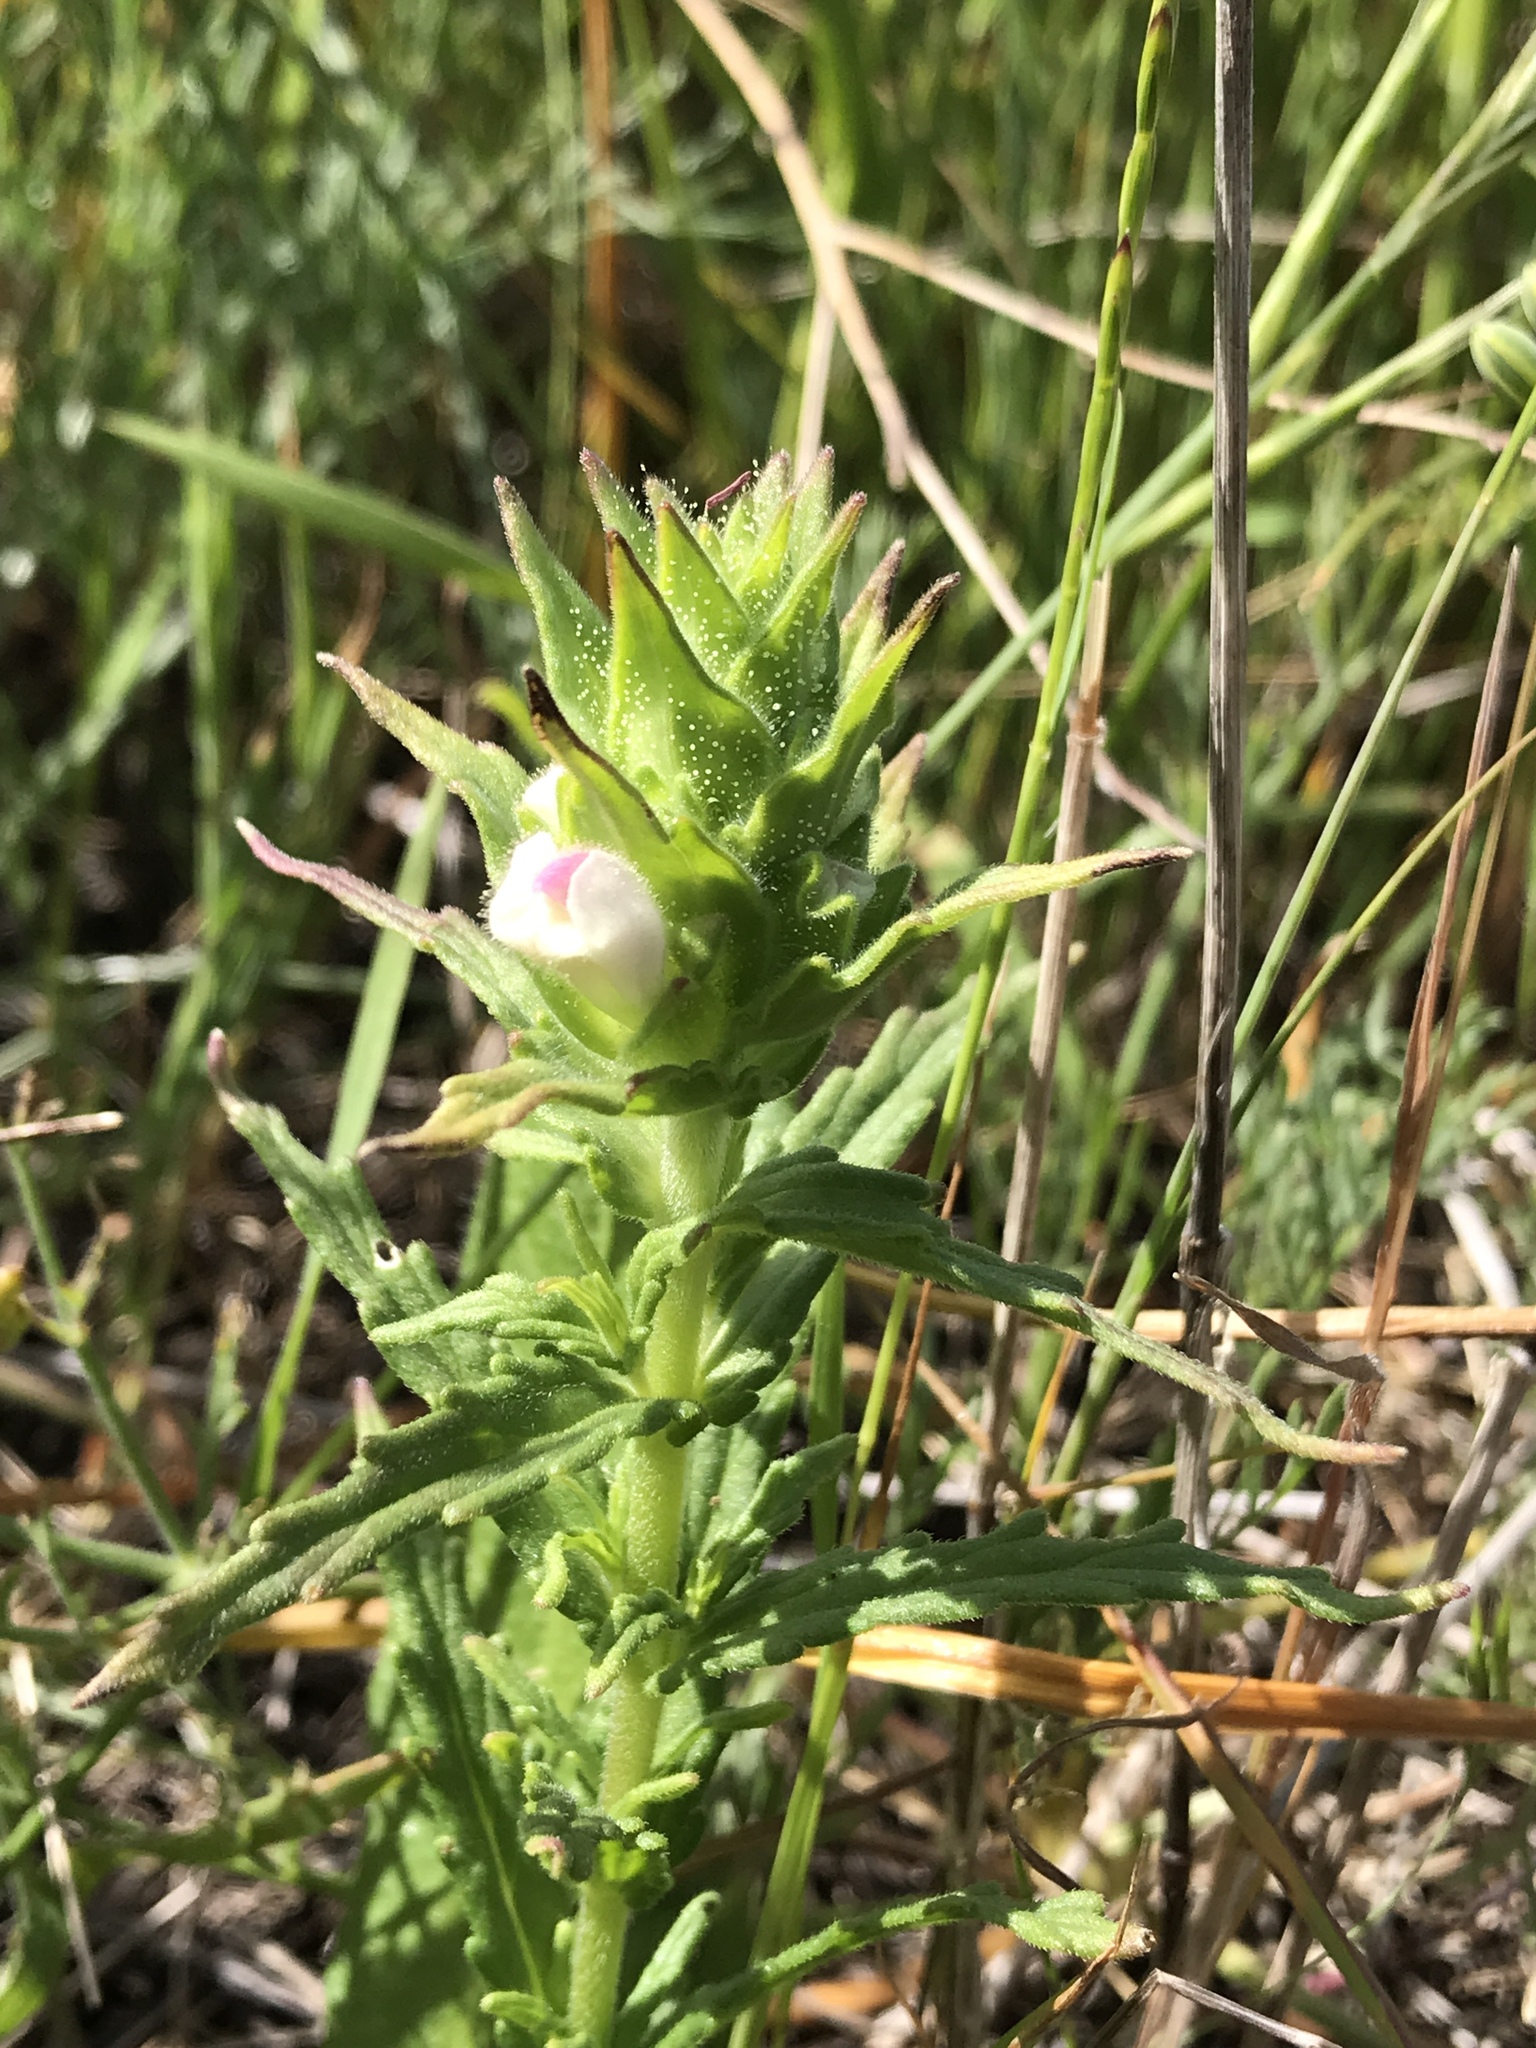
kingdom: Plantae
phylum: Tracheophyta
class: Magnoliopsida
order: Lamiales
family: Orobanchaceae
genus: Bellardia
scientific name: Bellardia trixago
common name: Mediterranean lineseed
